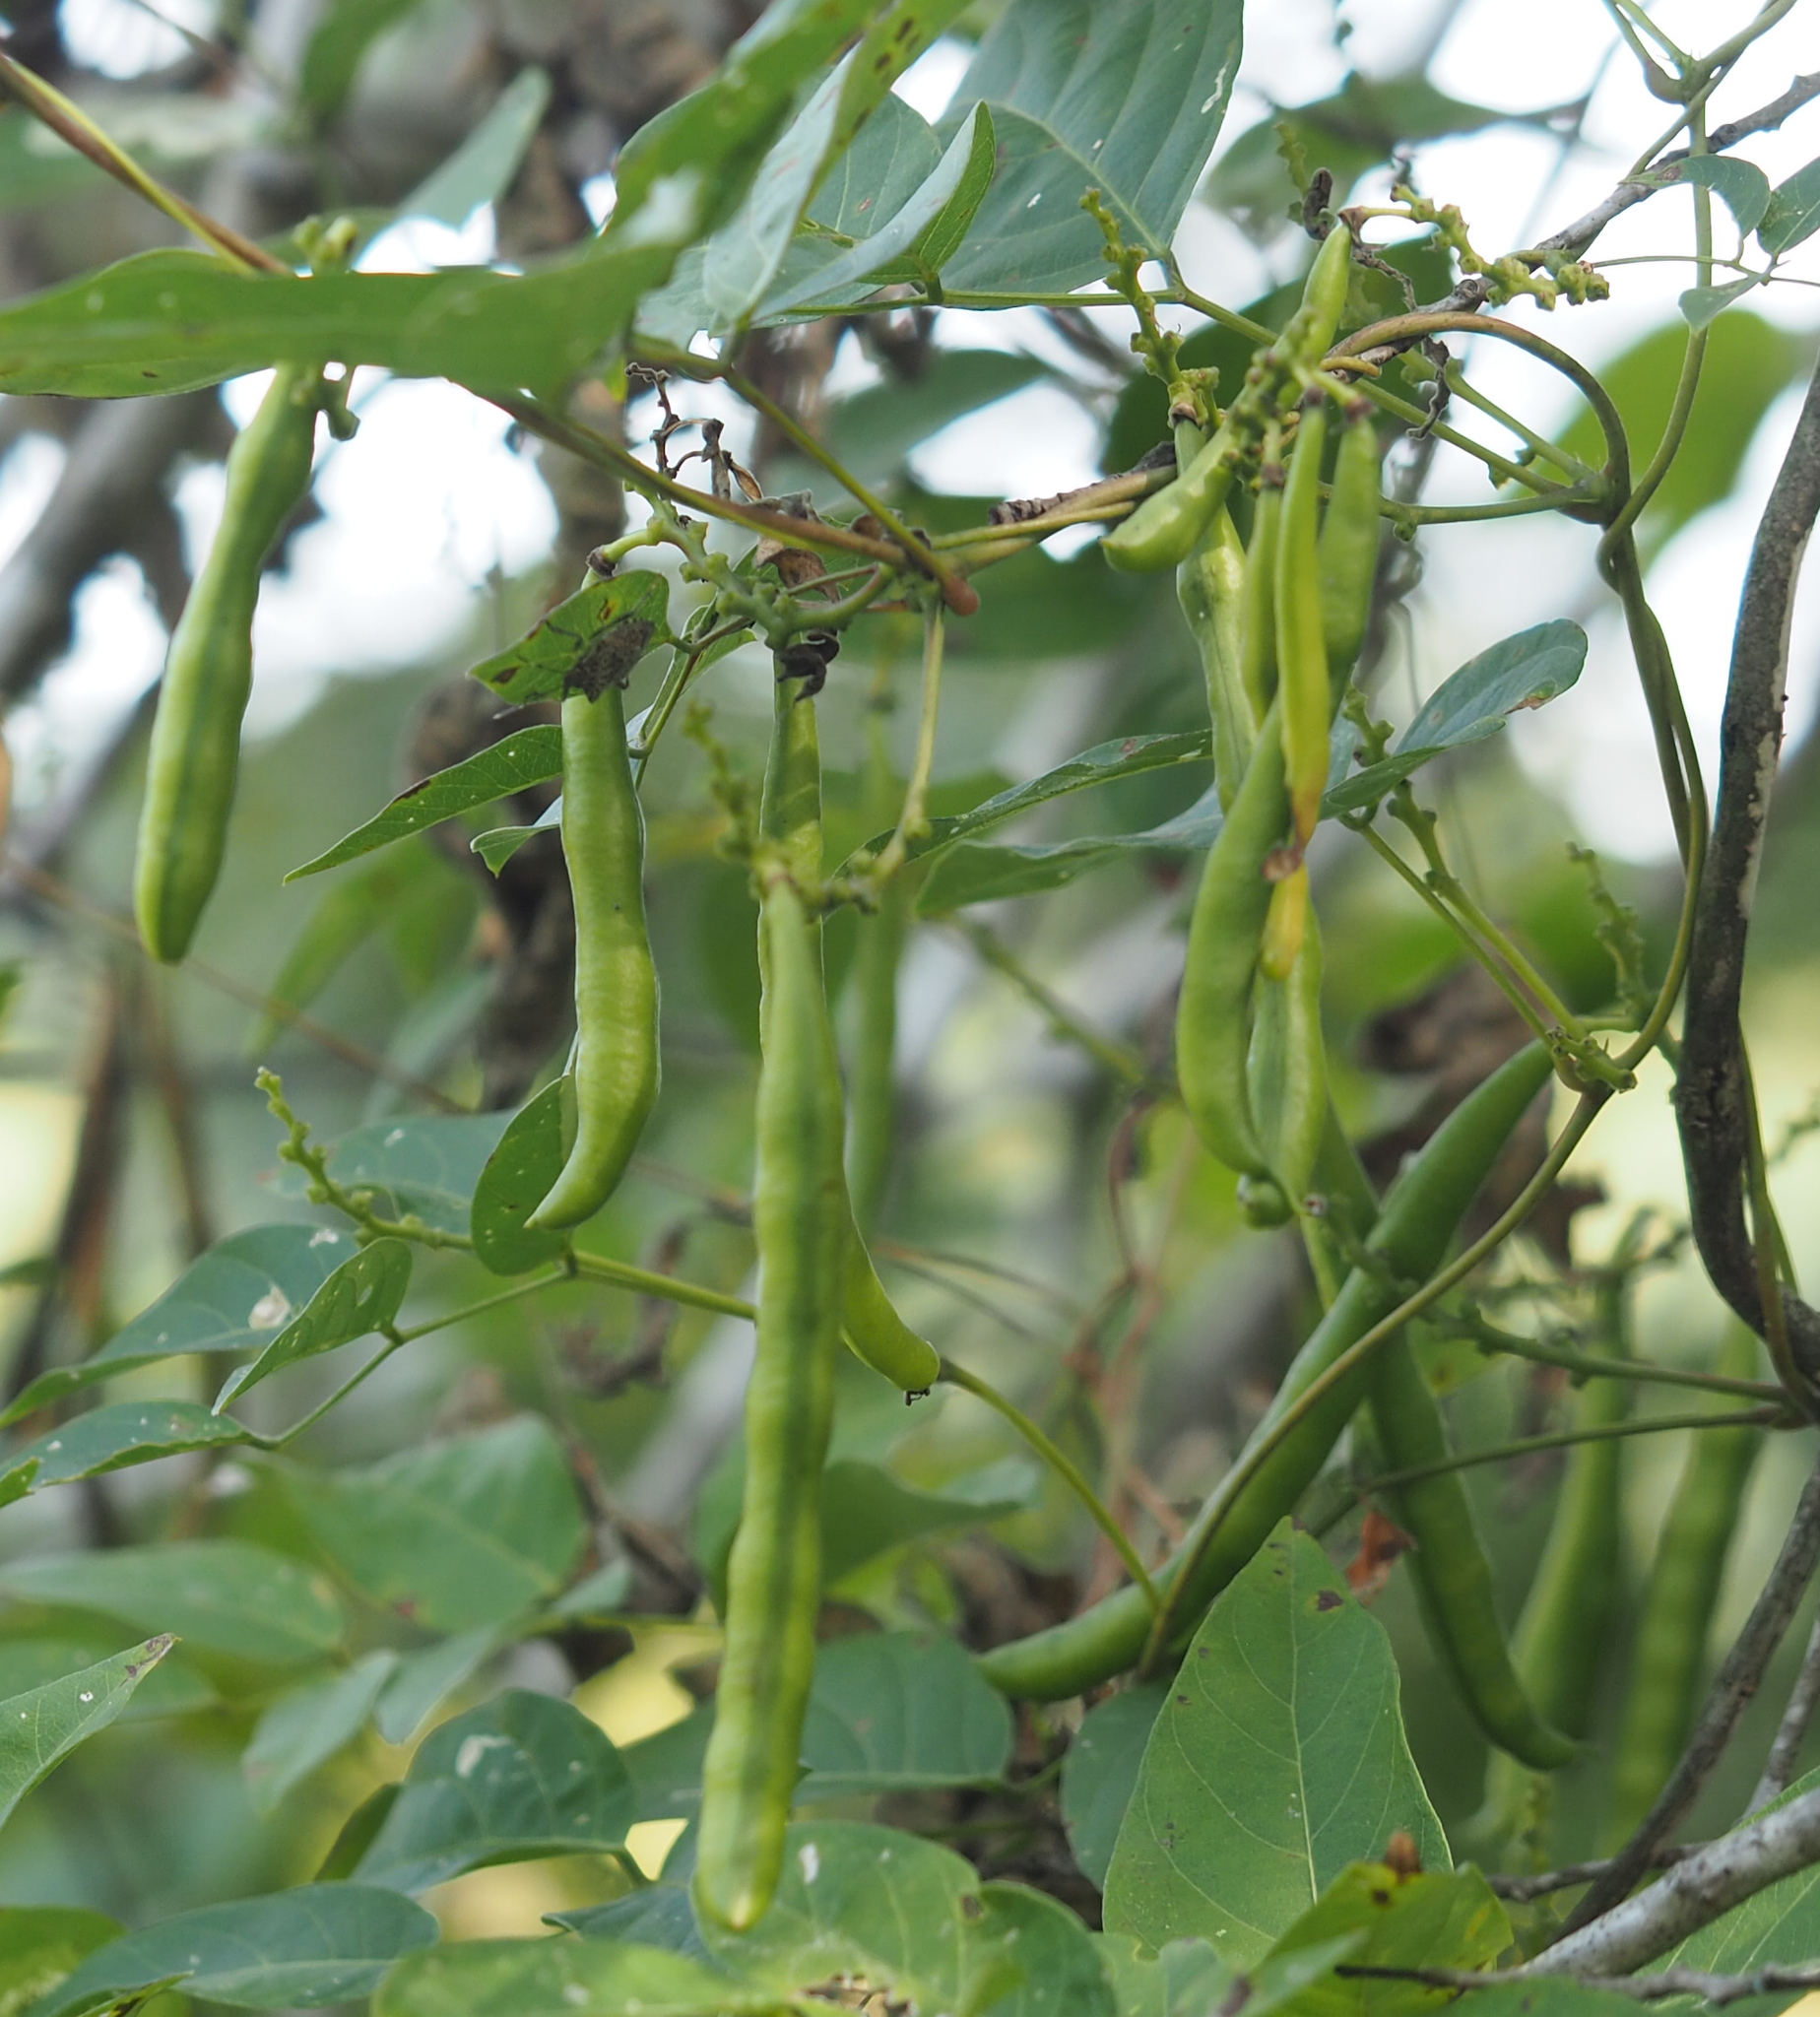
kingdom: Plantae
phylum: Tracheophyta
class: Magnoliopsida
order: Fabales
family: Fabaceae
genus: Apios
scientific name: Apios americana
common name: American potato-bean
